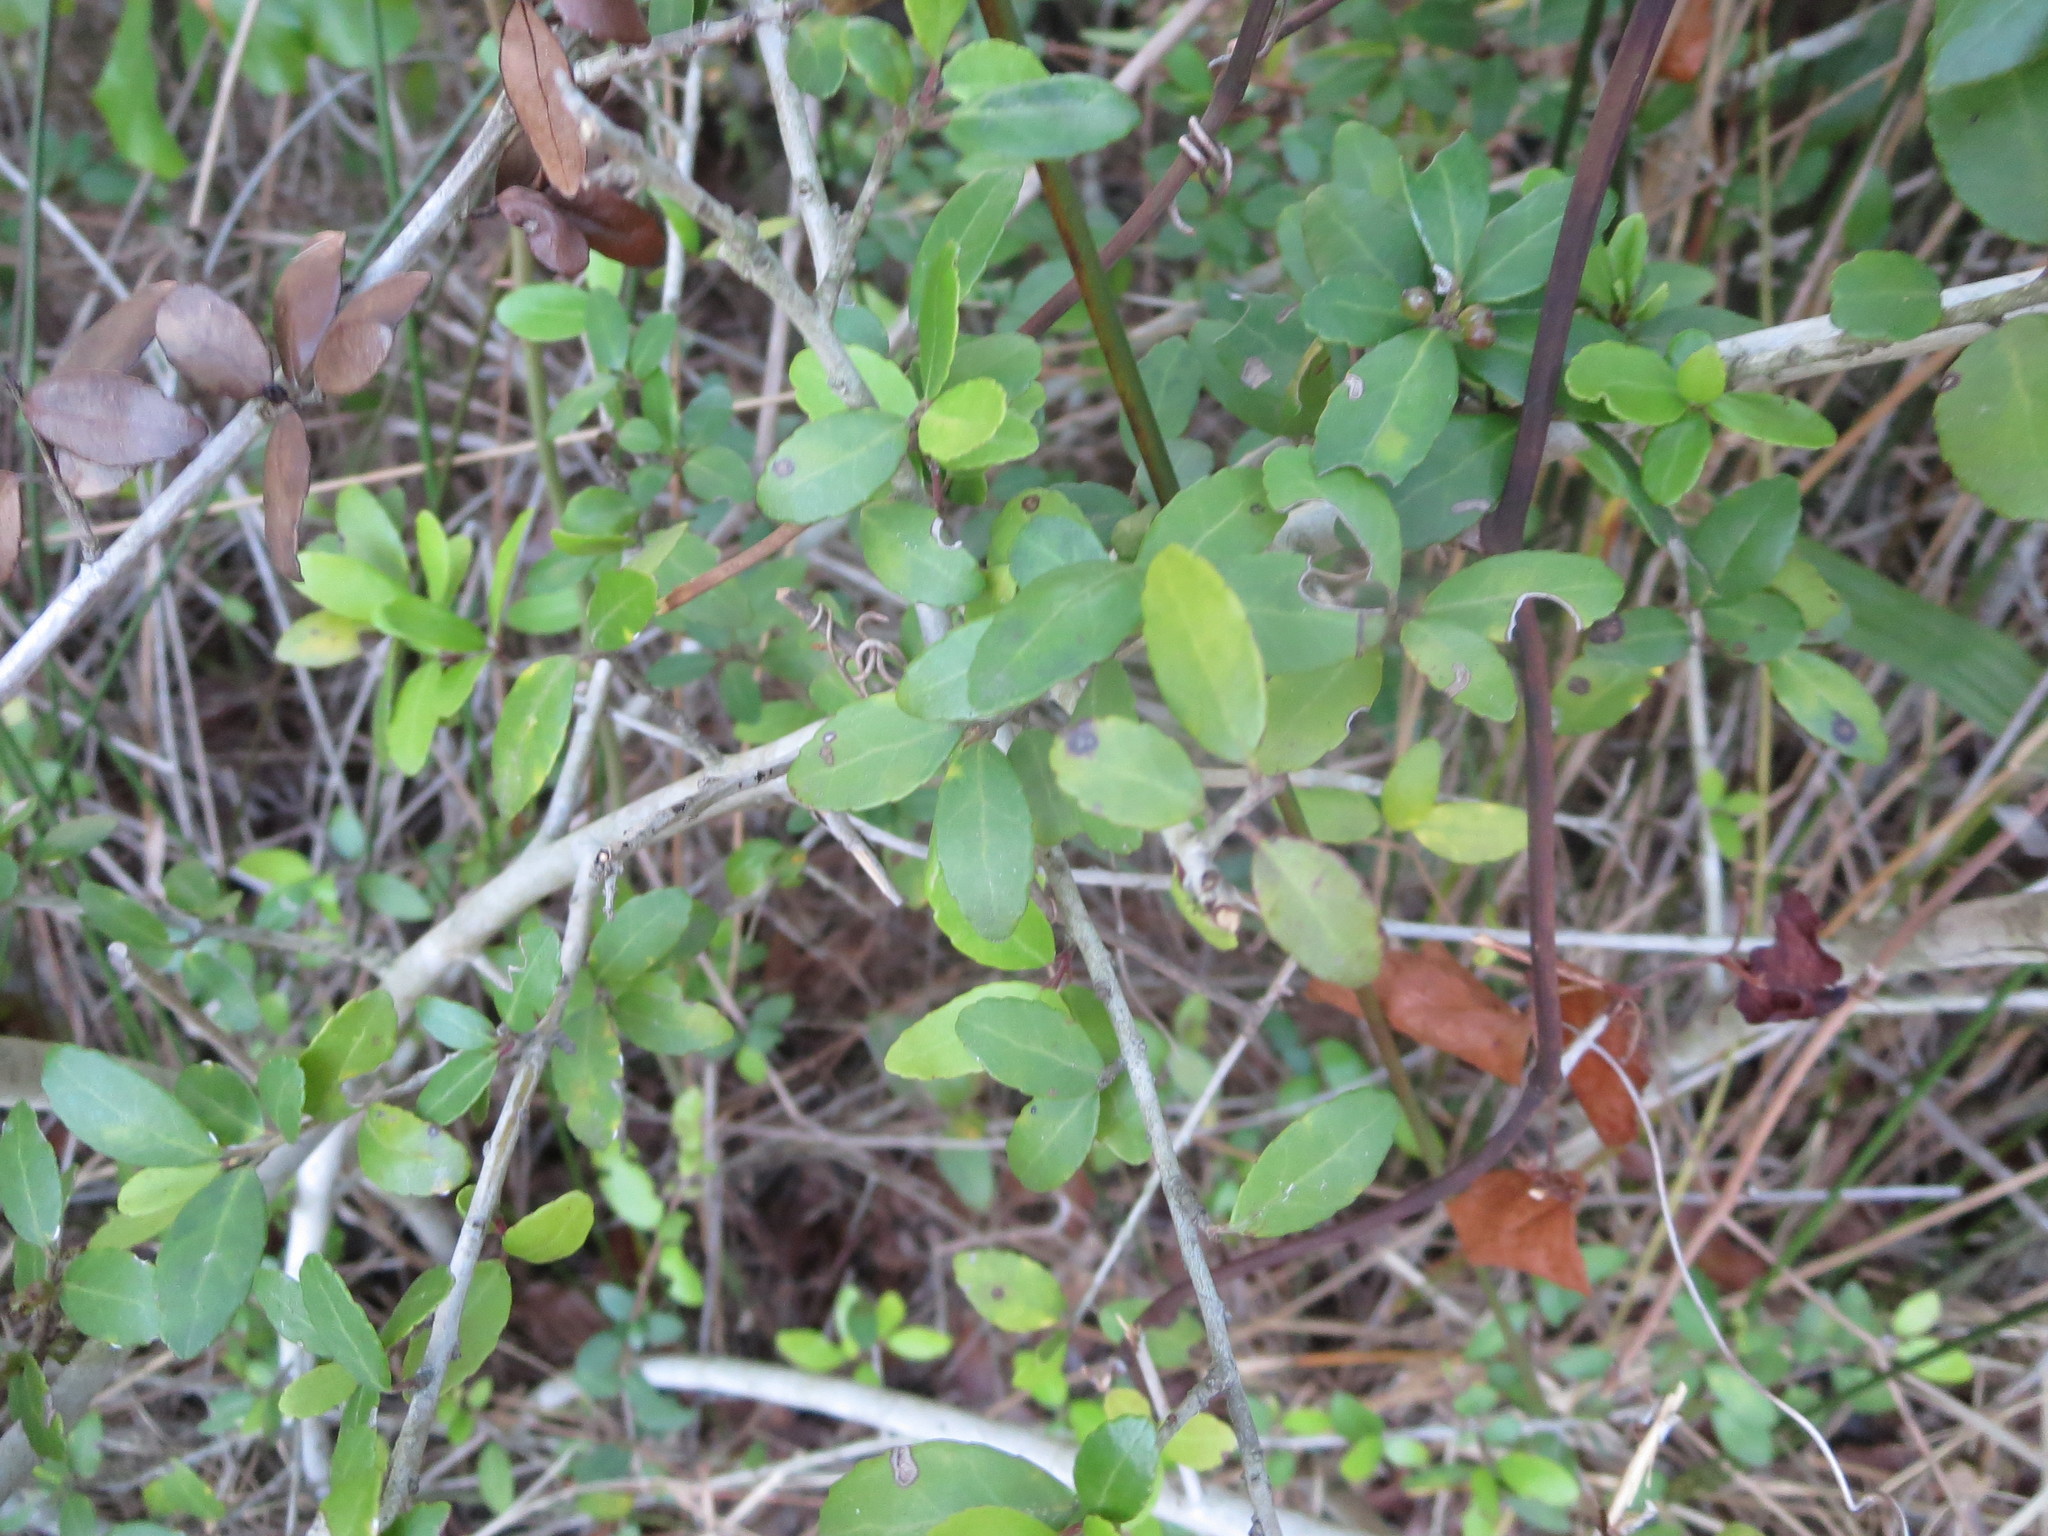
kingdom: Plantae
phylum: Tracheophyta
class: Magnoliopsida
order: Aquifoliales
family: Aquifoliaceae
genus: Ilex
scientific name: Ilex vomitoria
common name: Yaupon holly
